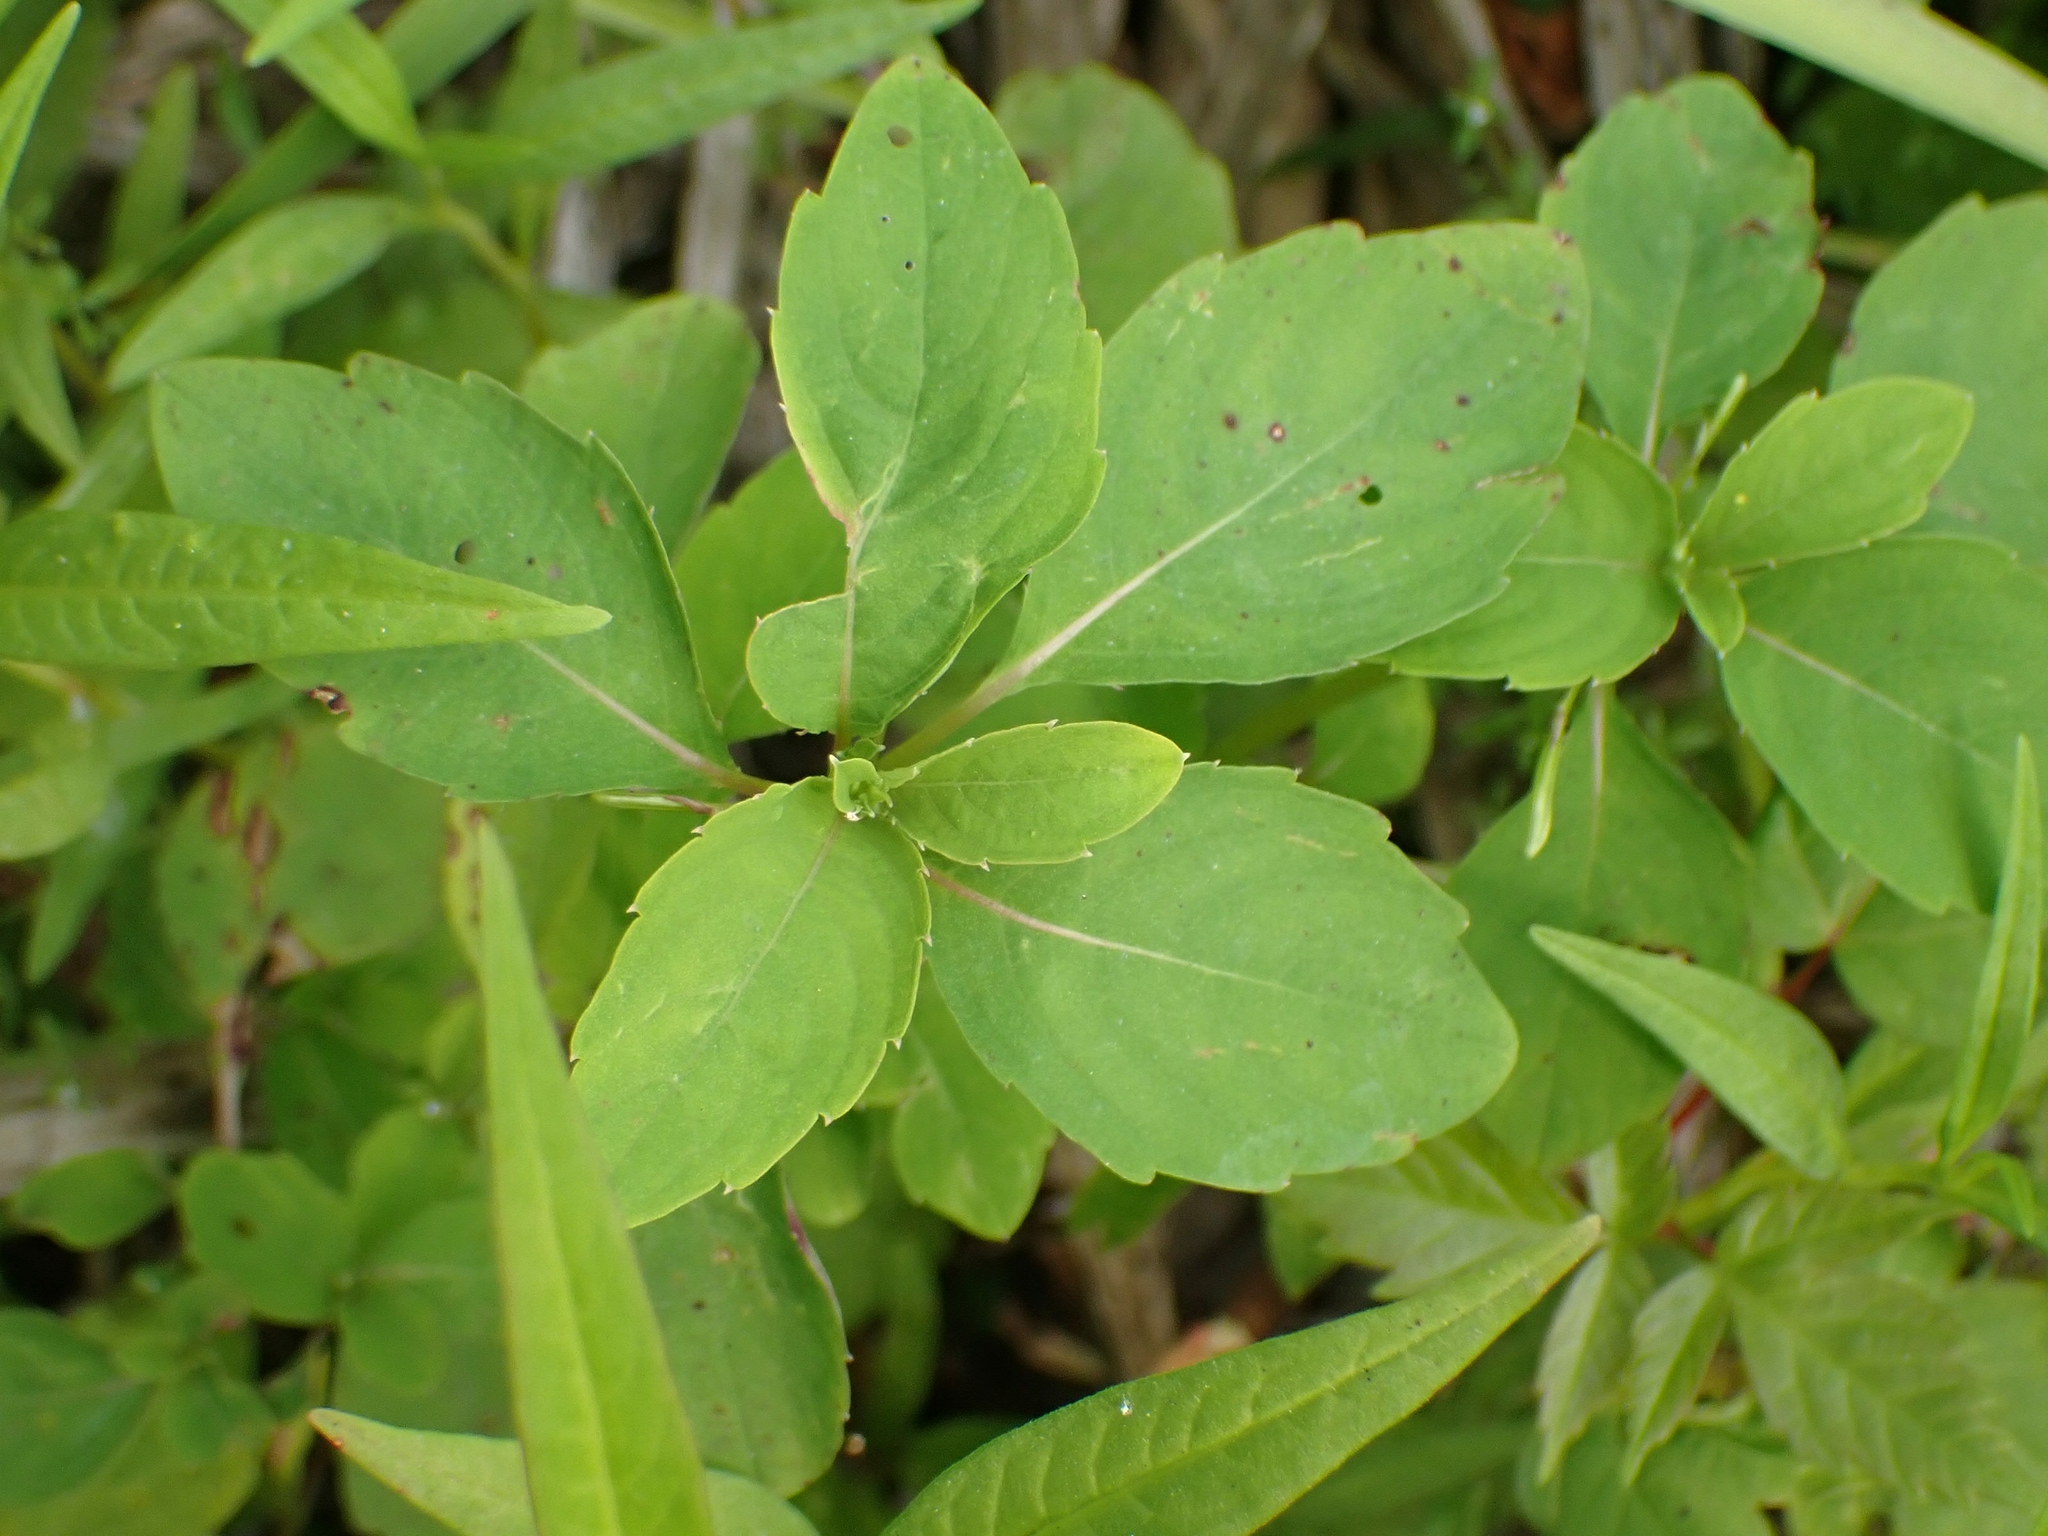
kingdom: Plantae
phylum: Tracheophyta
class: Magnoliopsida
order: Ericales
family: Balsaminaceae
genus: Impatiens
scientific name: Impatiens capensis
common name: Orange balsam
